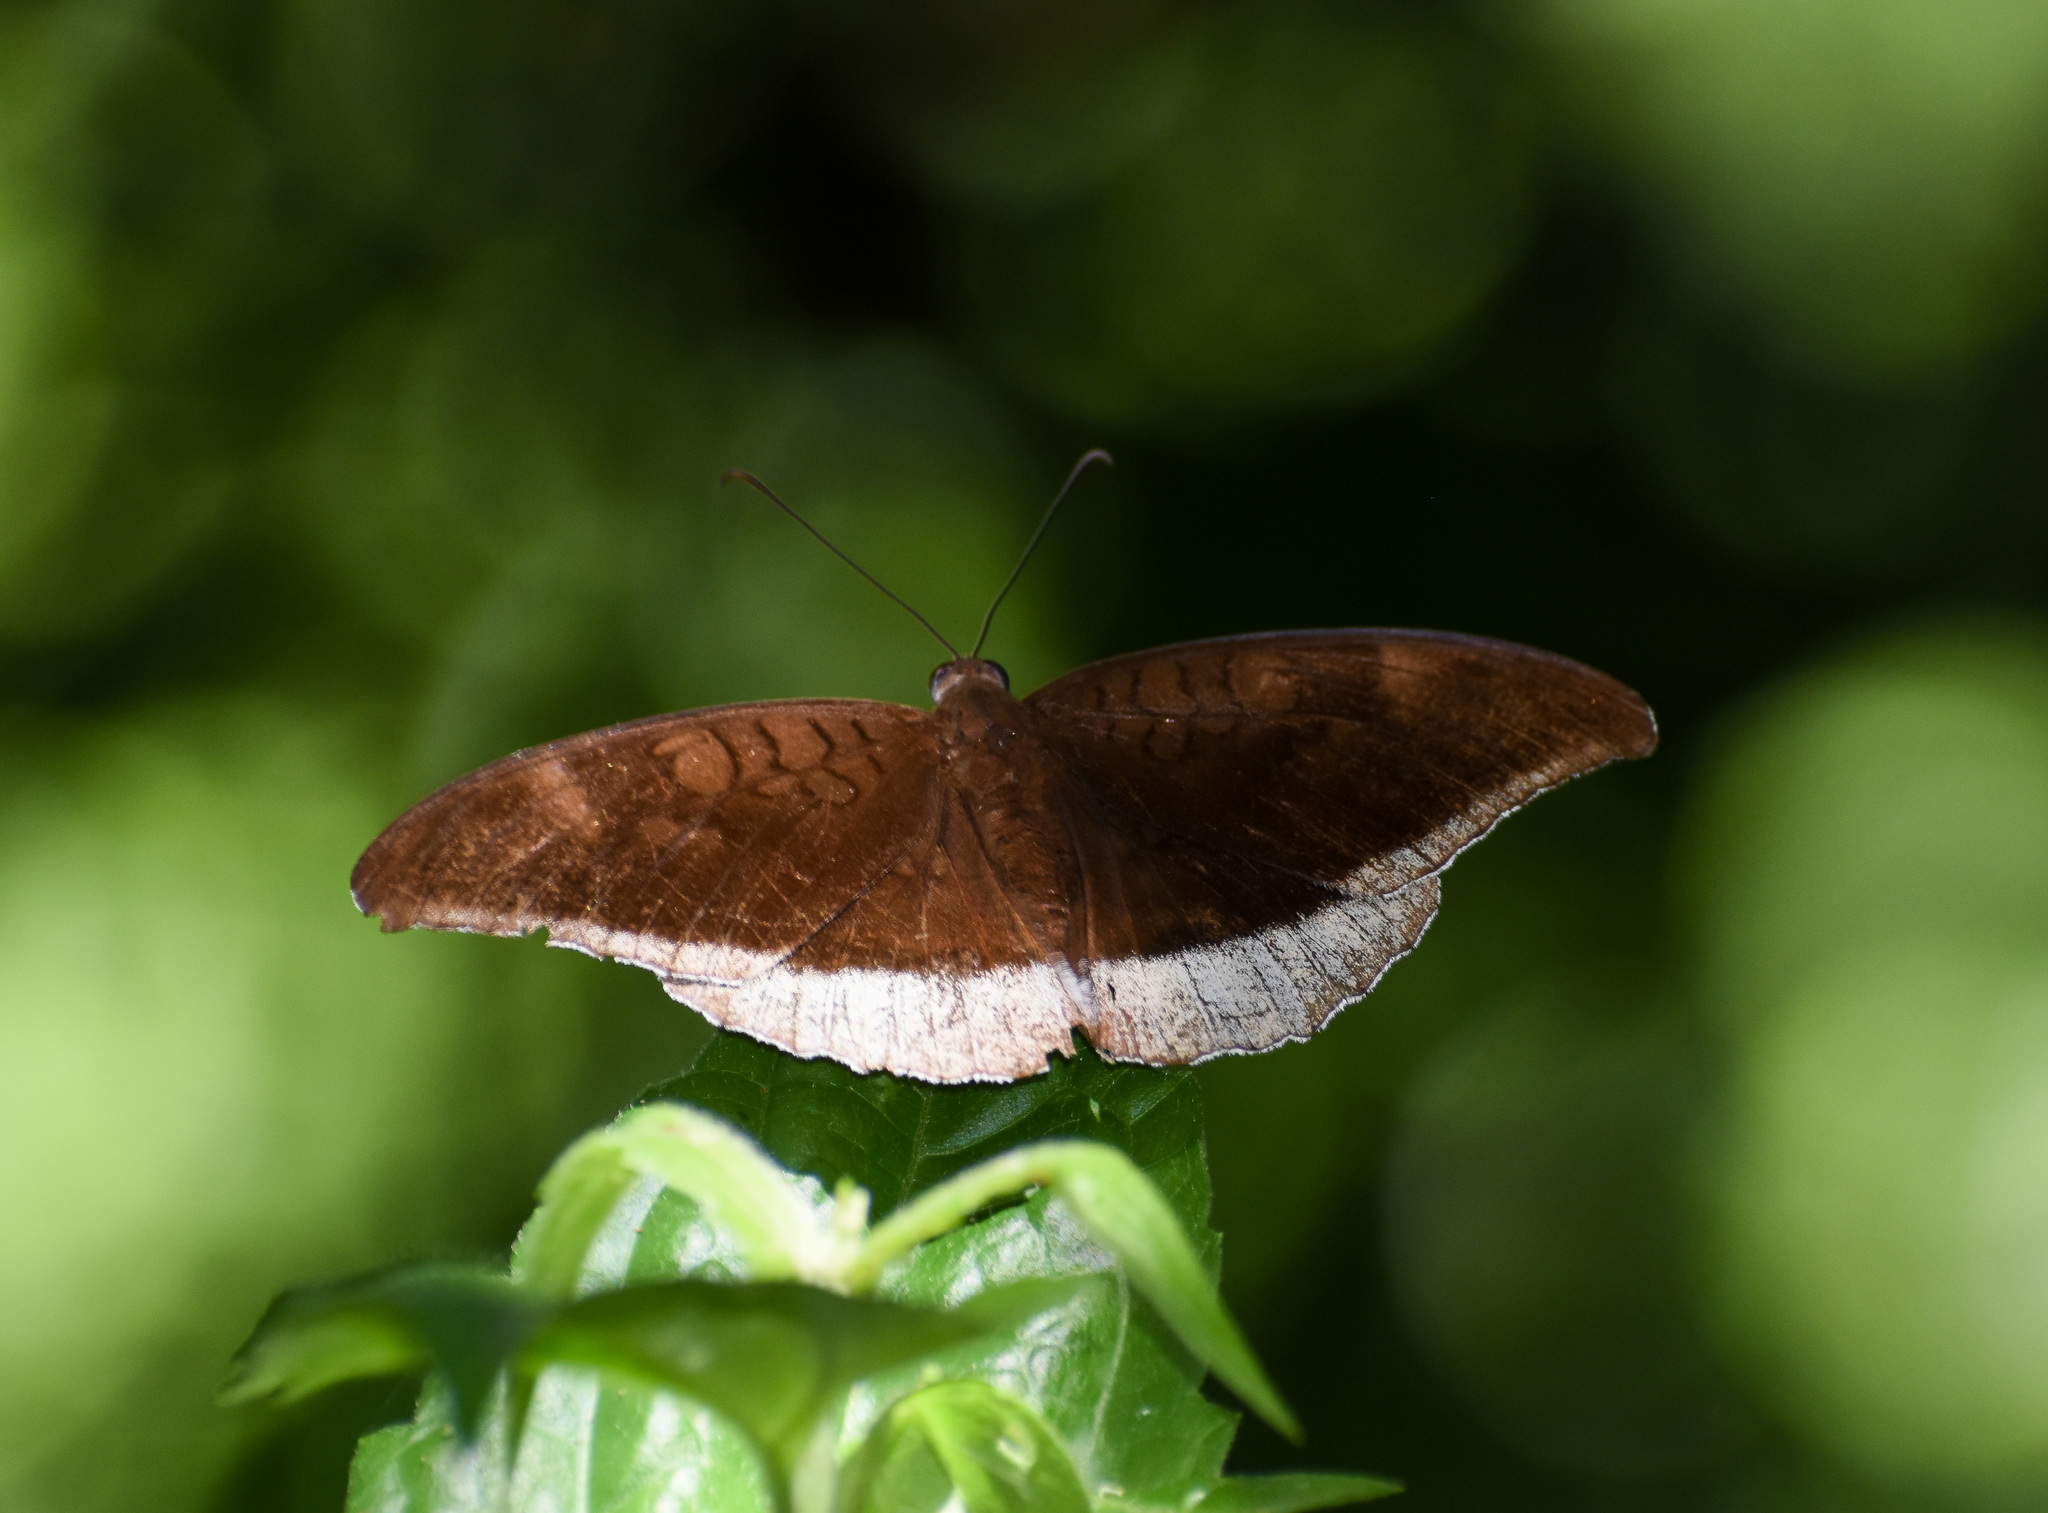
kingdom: Animalia
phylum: Arthropoda
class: Insecta
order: Lepidoptera
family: Nymphalidae
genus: Tanaecia
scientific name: Tanaecia lepidea
